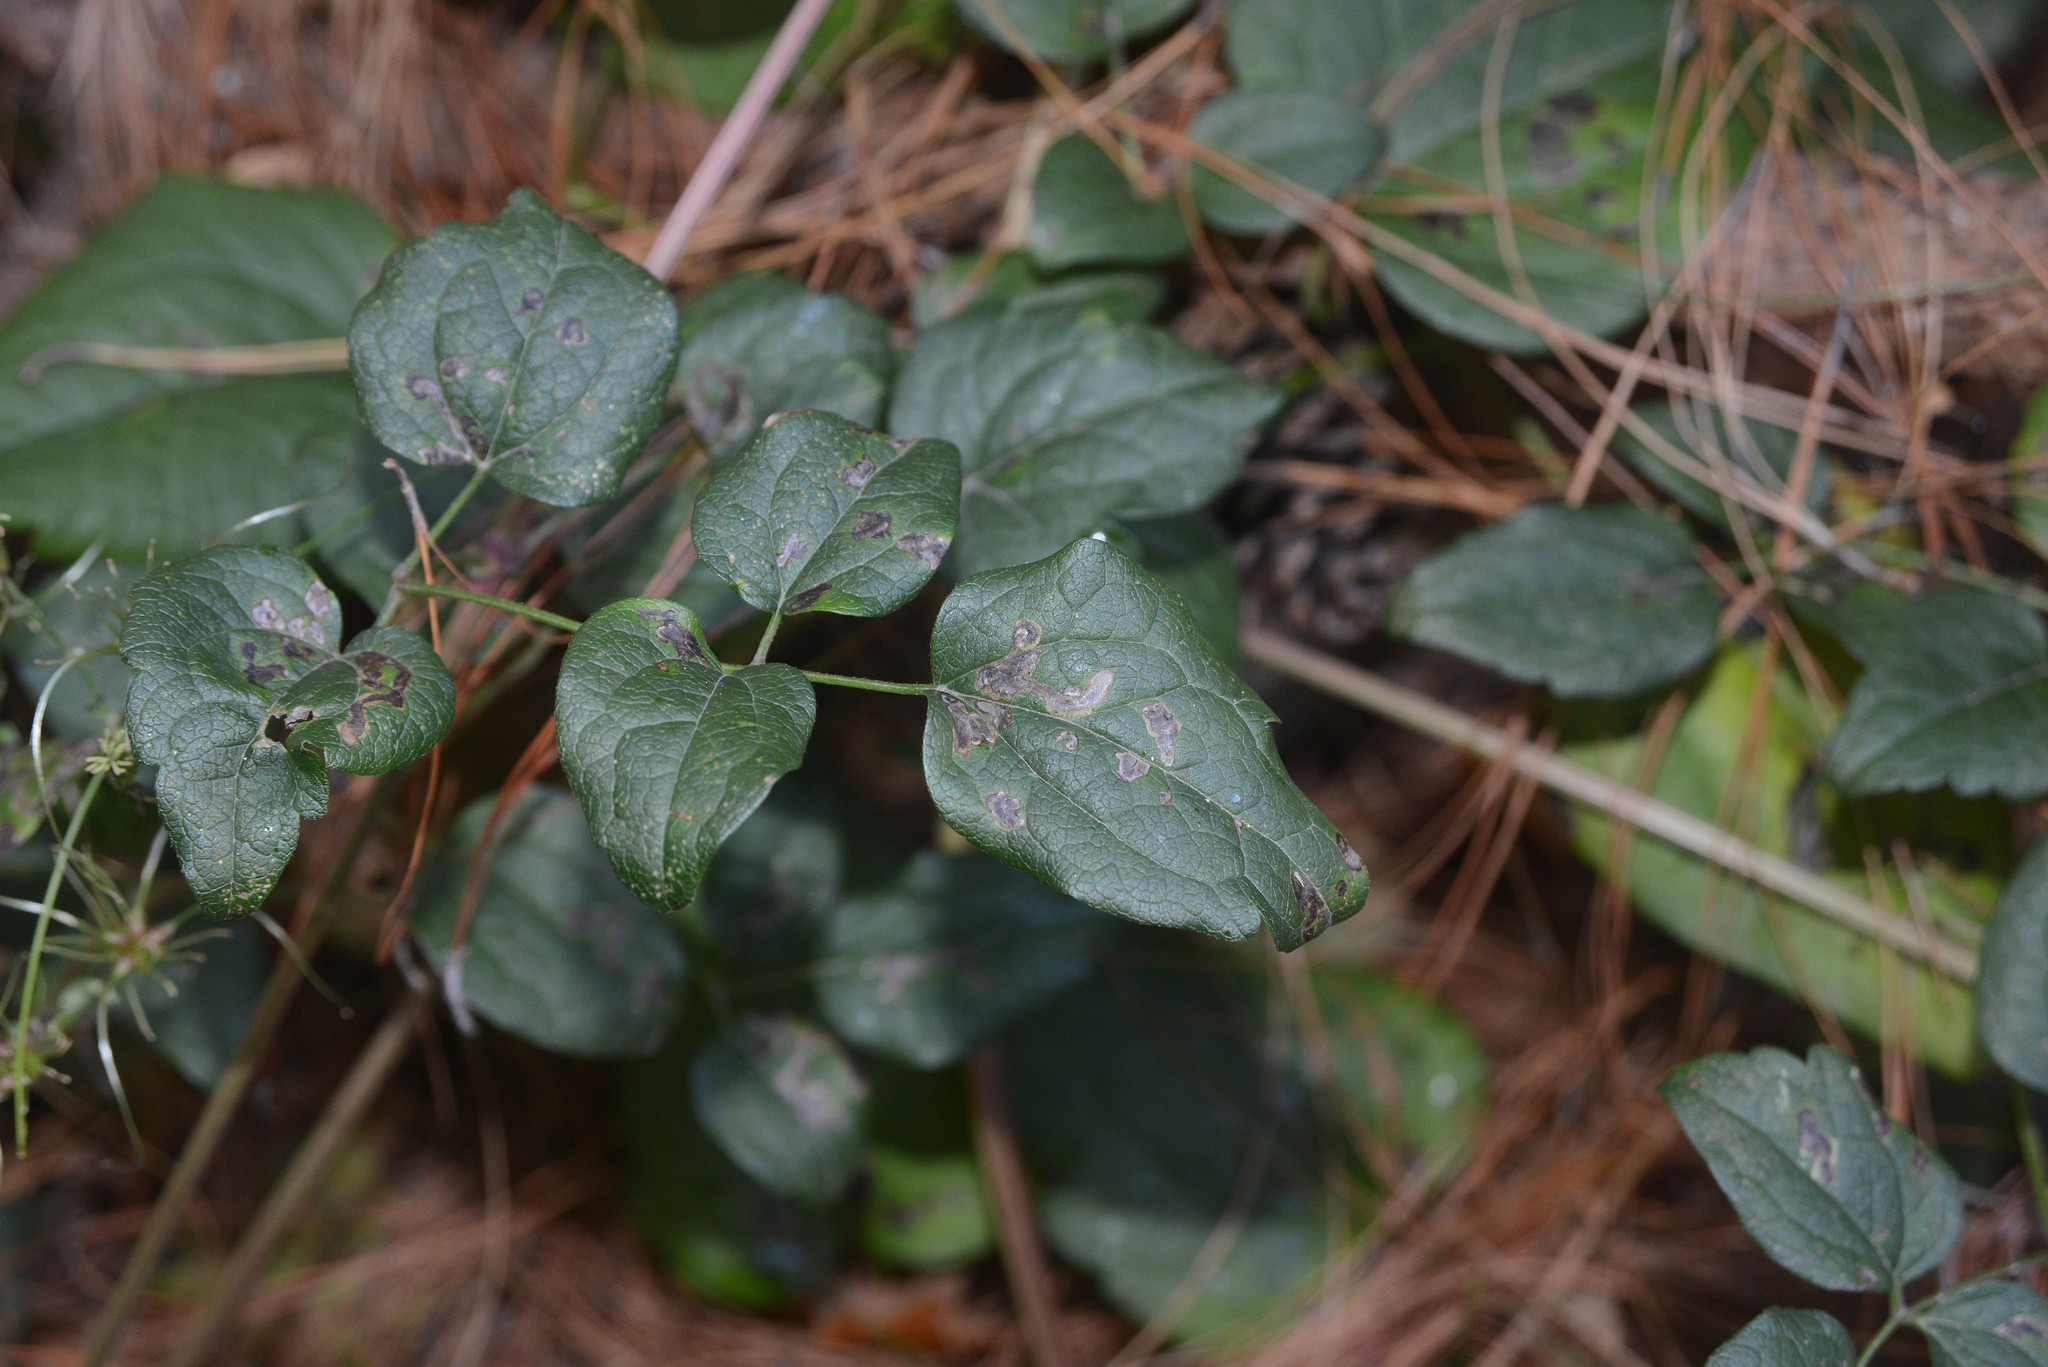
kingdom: Animalia
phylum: Arthropoda
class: Insecta
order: Diptera
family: Agromyzidae
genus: Phytomyza
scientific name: Phytomyza vitalbae
